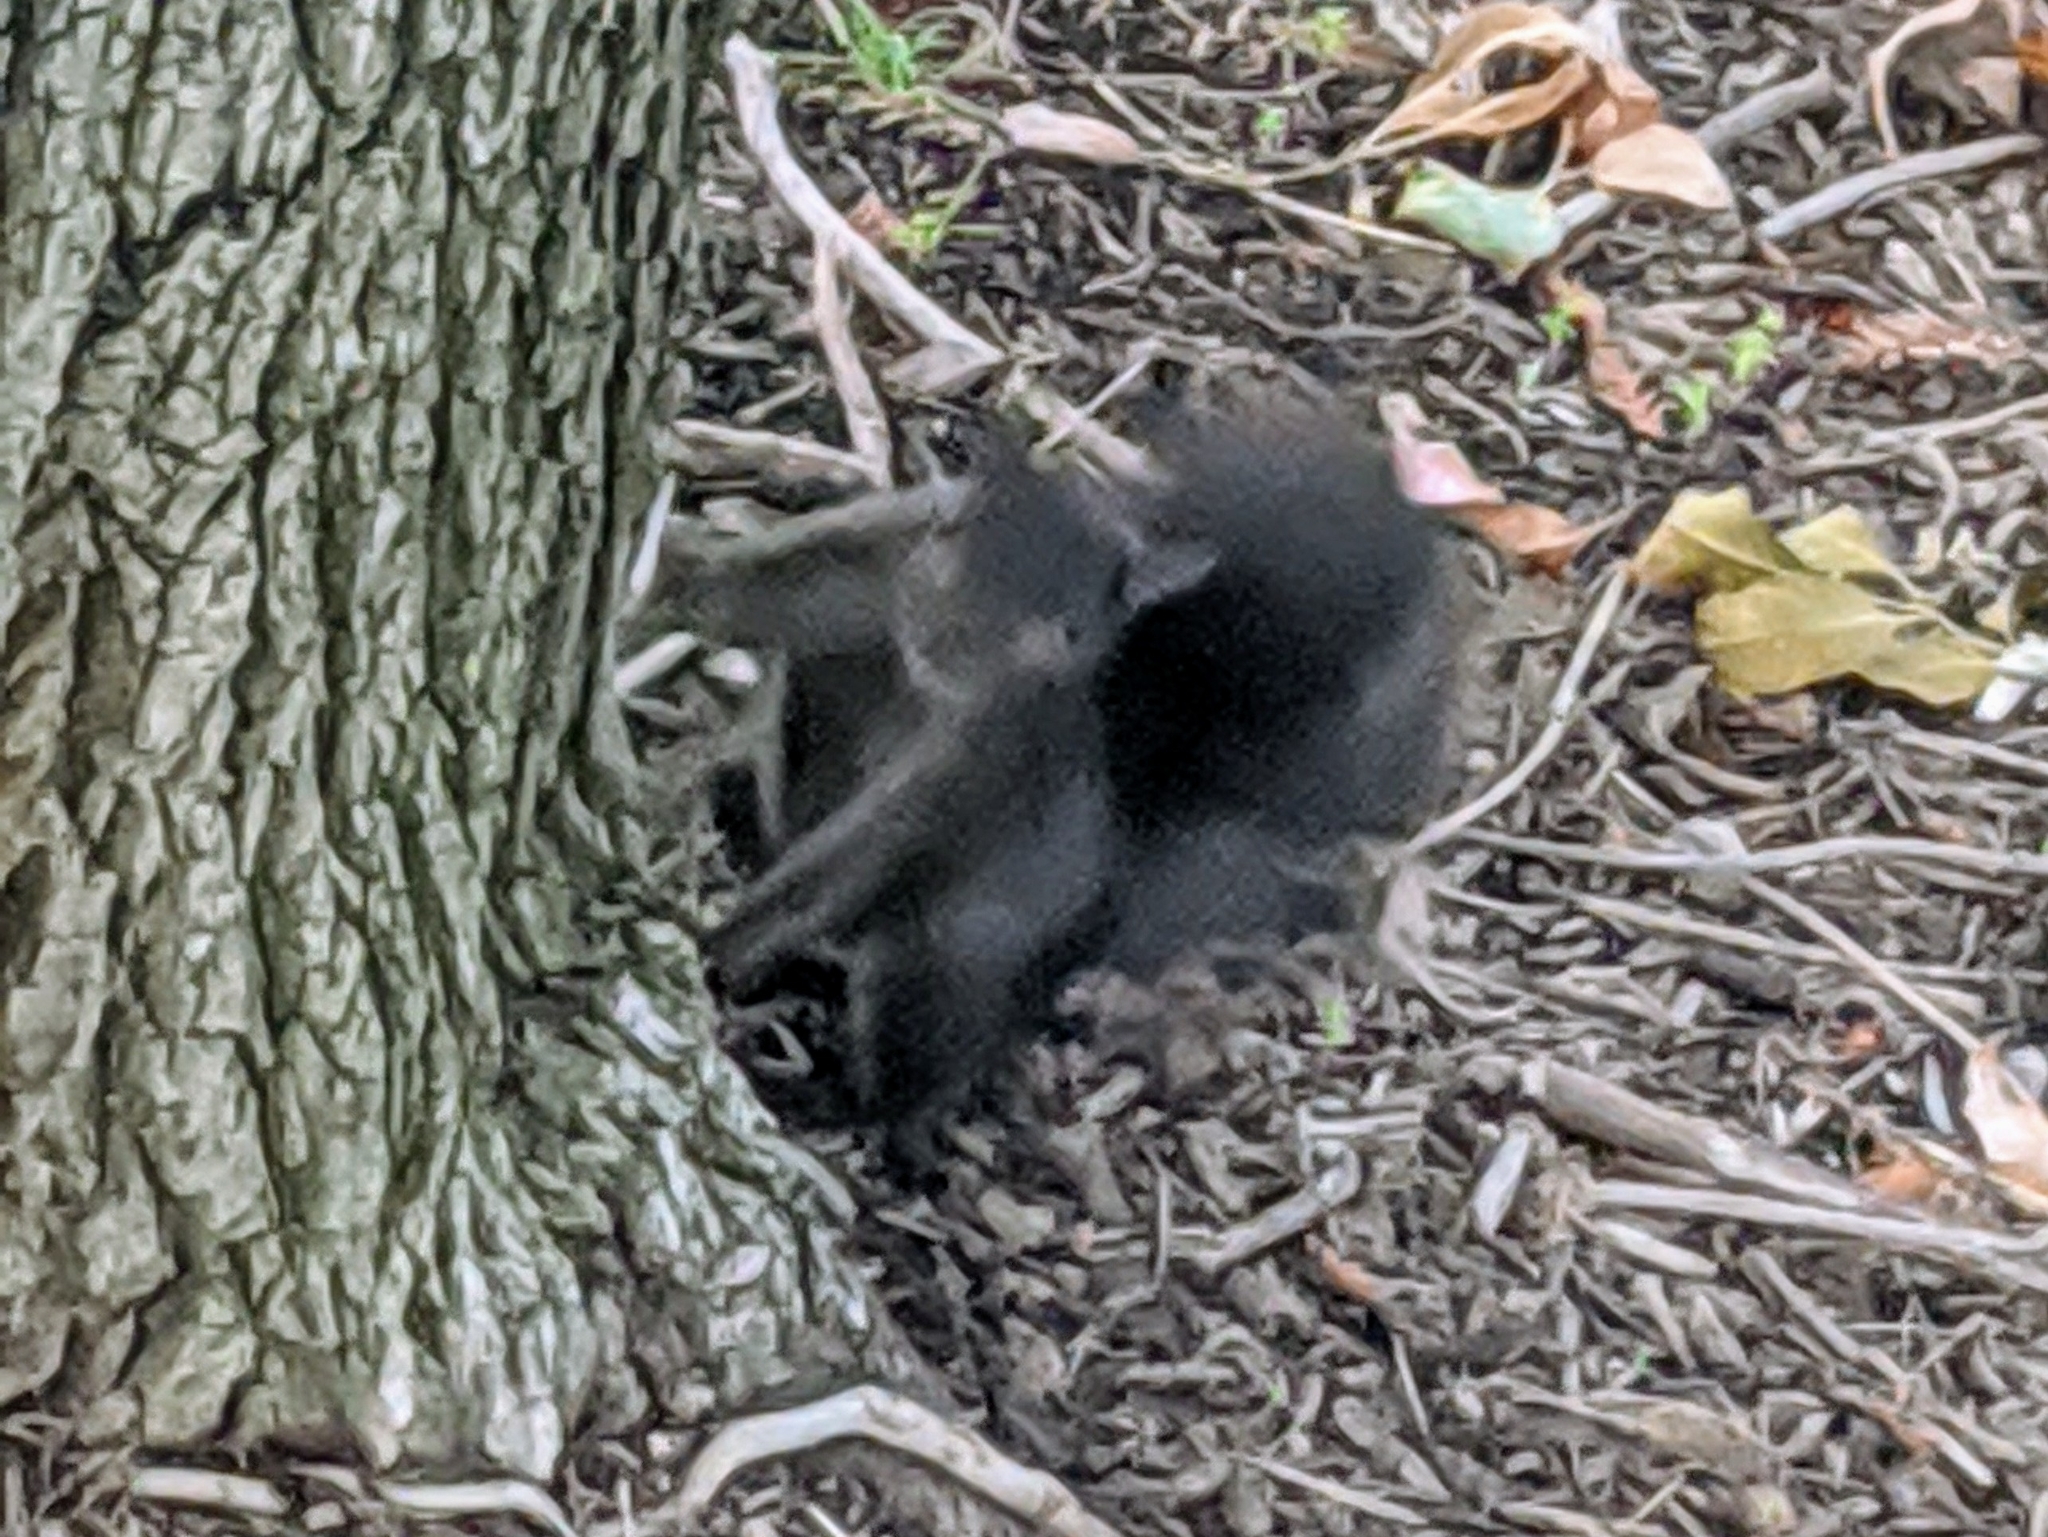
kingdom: Animalia
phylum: Chordata
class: Mammalia
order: Rodentia
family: Sciuridae
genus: Sciurus
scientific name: Sciurus carolinensis
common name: Eastern gray squirrel
